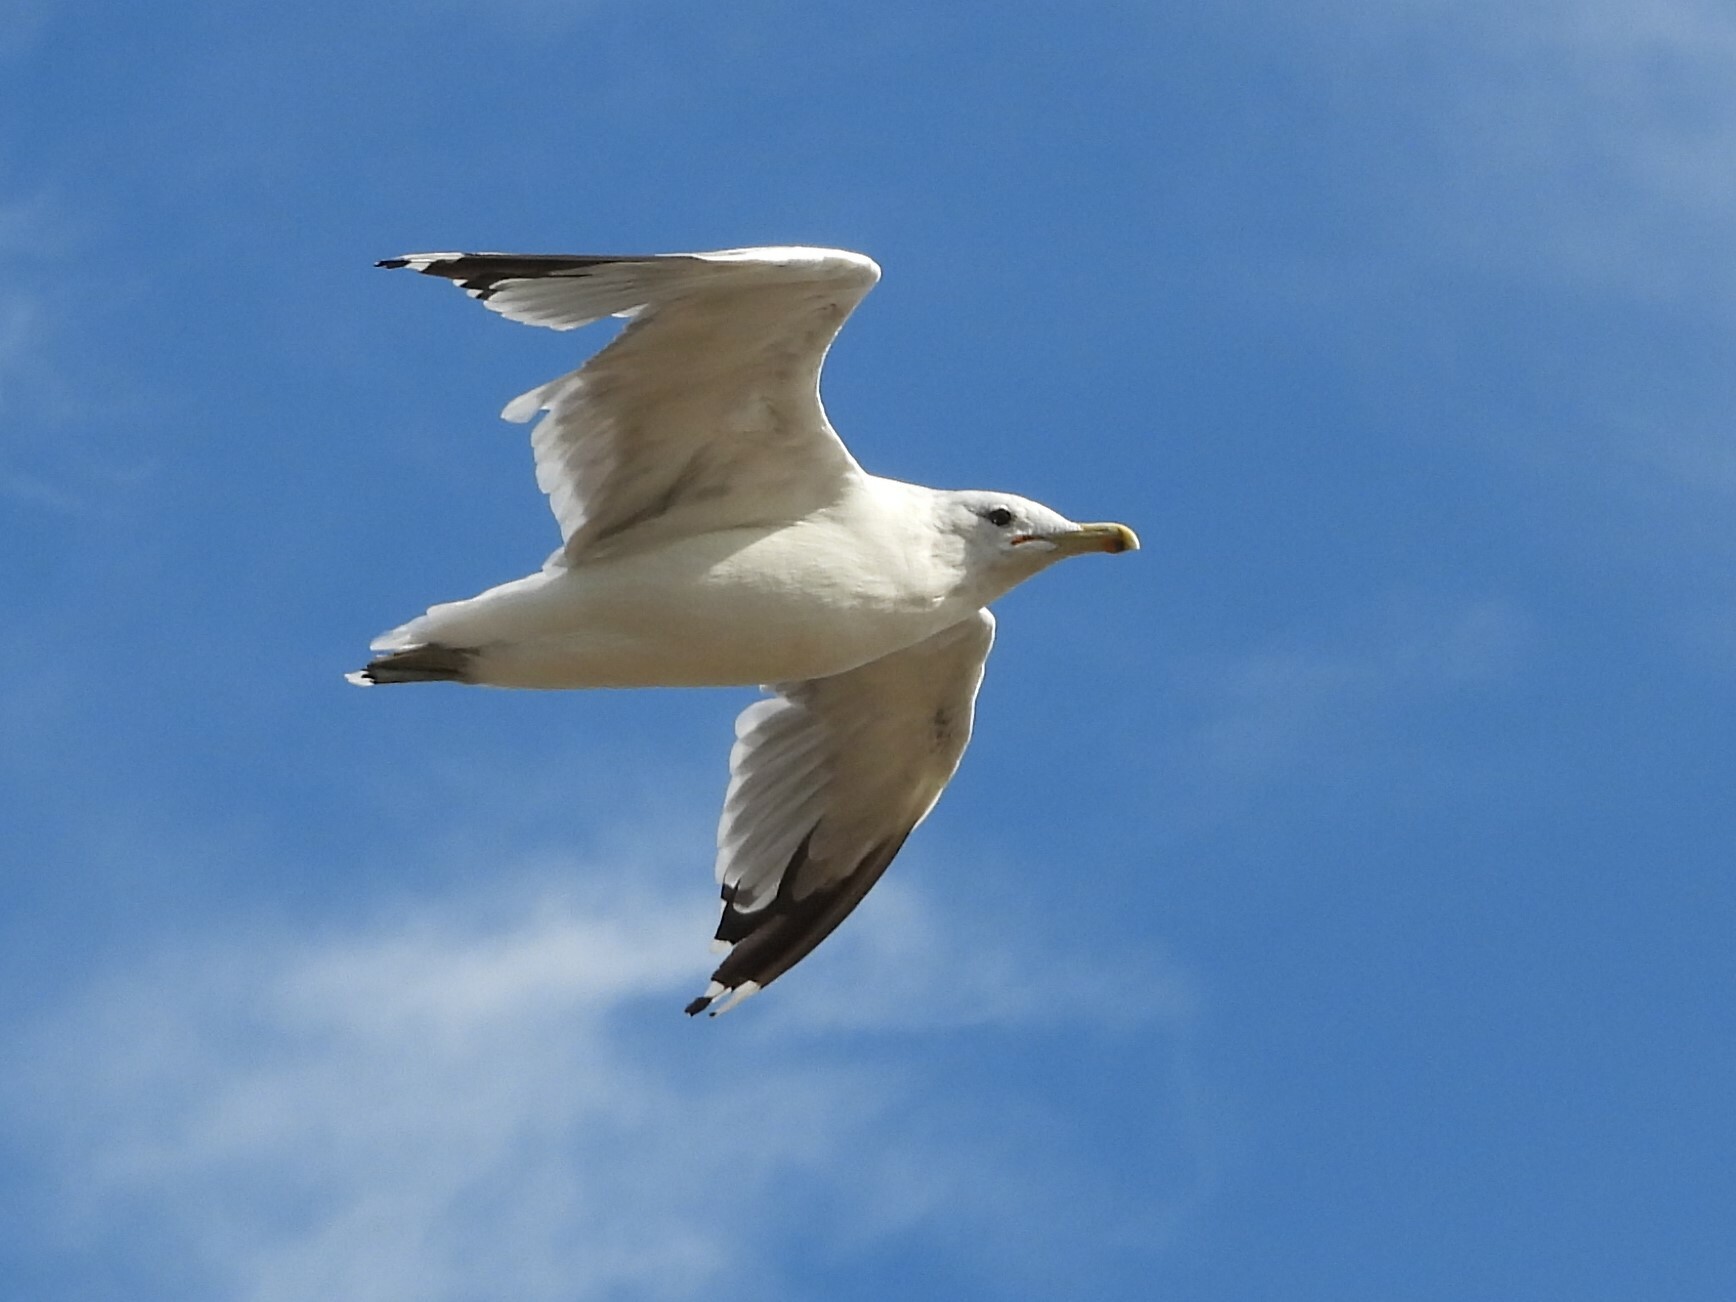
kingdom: Animalia
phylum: Chordata
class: Aves
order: Charadriiformes
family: Laridae
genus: Larus
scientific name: Larus californicus
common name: California gull
